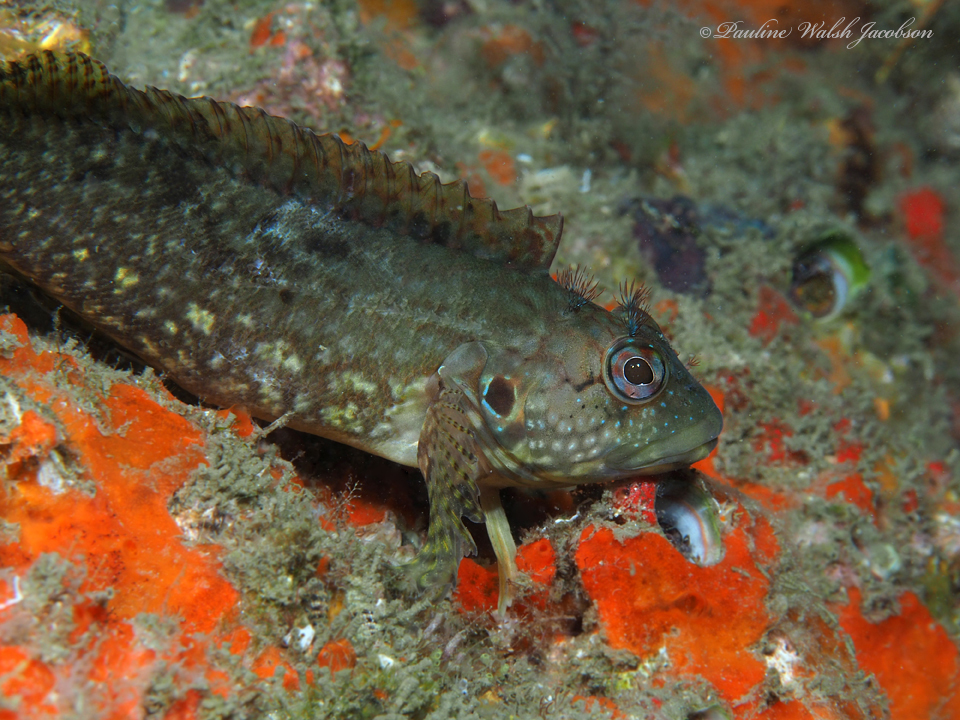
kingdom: Animalia
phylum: Chordata
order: Perciformes
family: Labrisomidae
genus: Labrisomus
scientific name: Labrisomus conditus
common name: Masquerader hairy blenny
